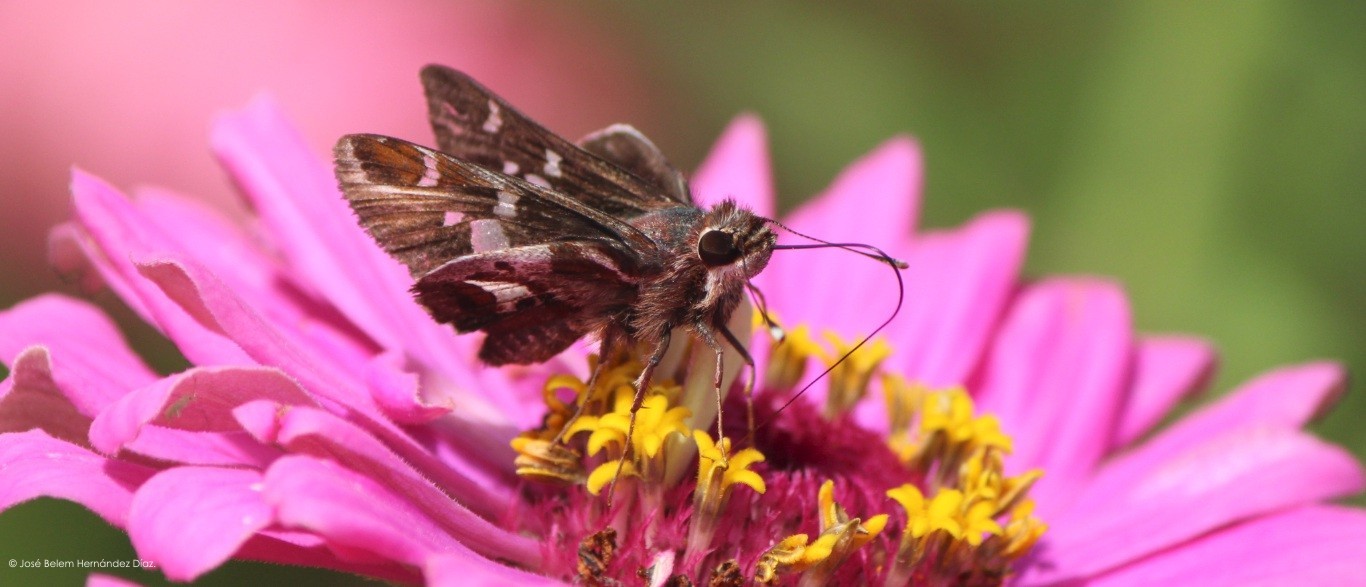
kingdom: Animalia
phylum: Arthropoda
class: Insecta
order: Lepidoptera
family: Hesperiidae
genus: Thespieus
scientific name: Thespieus macareus
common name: Chestnut-marked skipper
